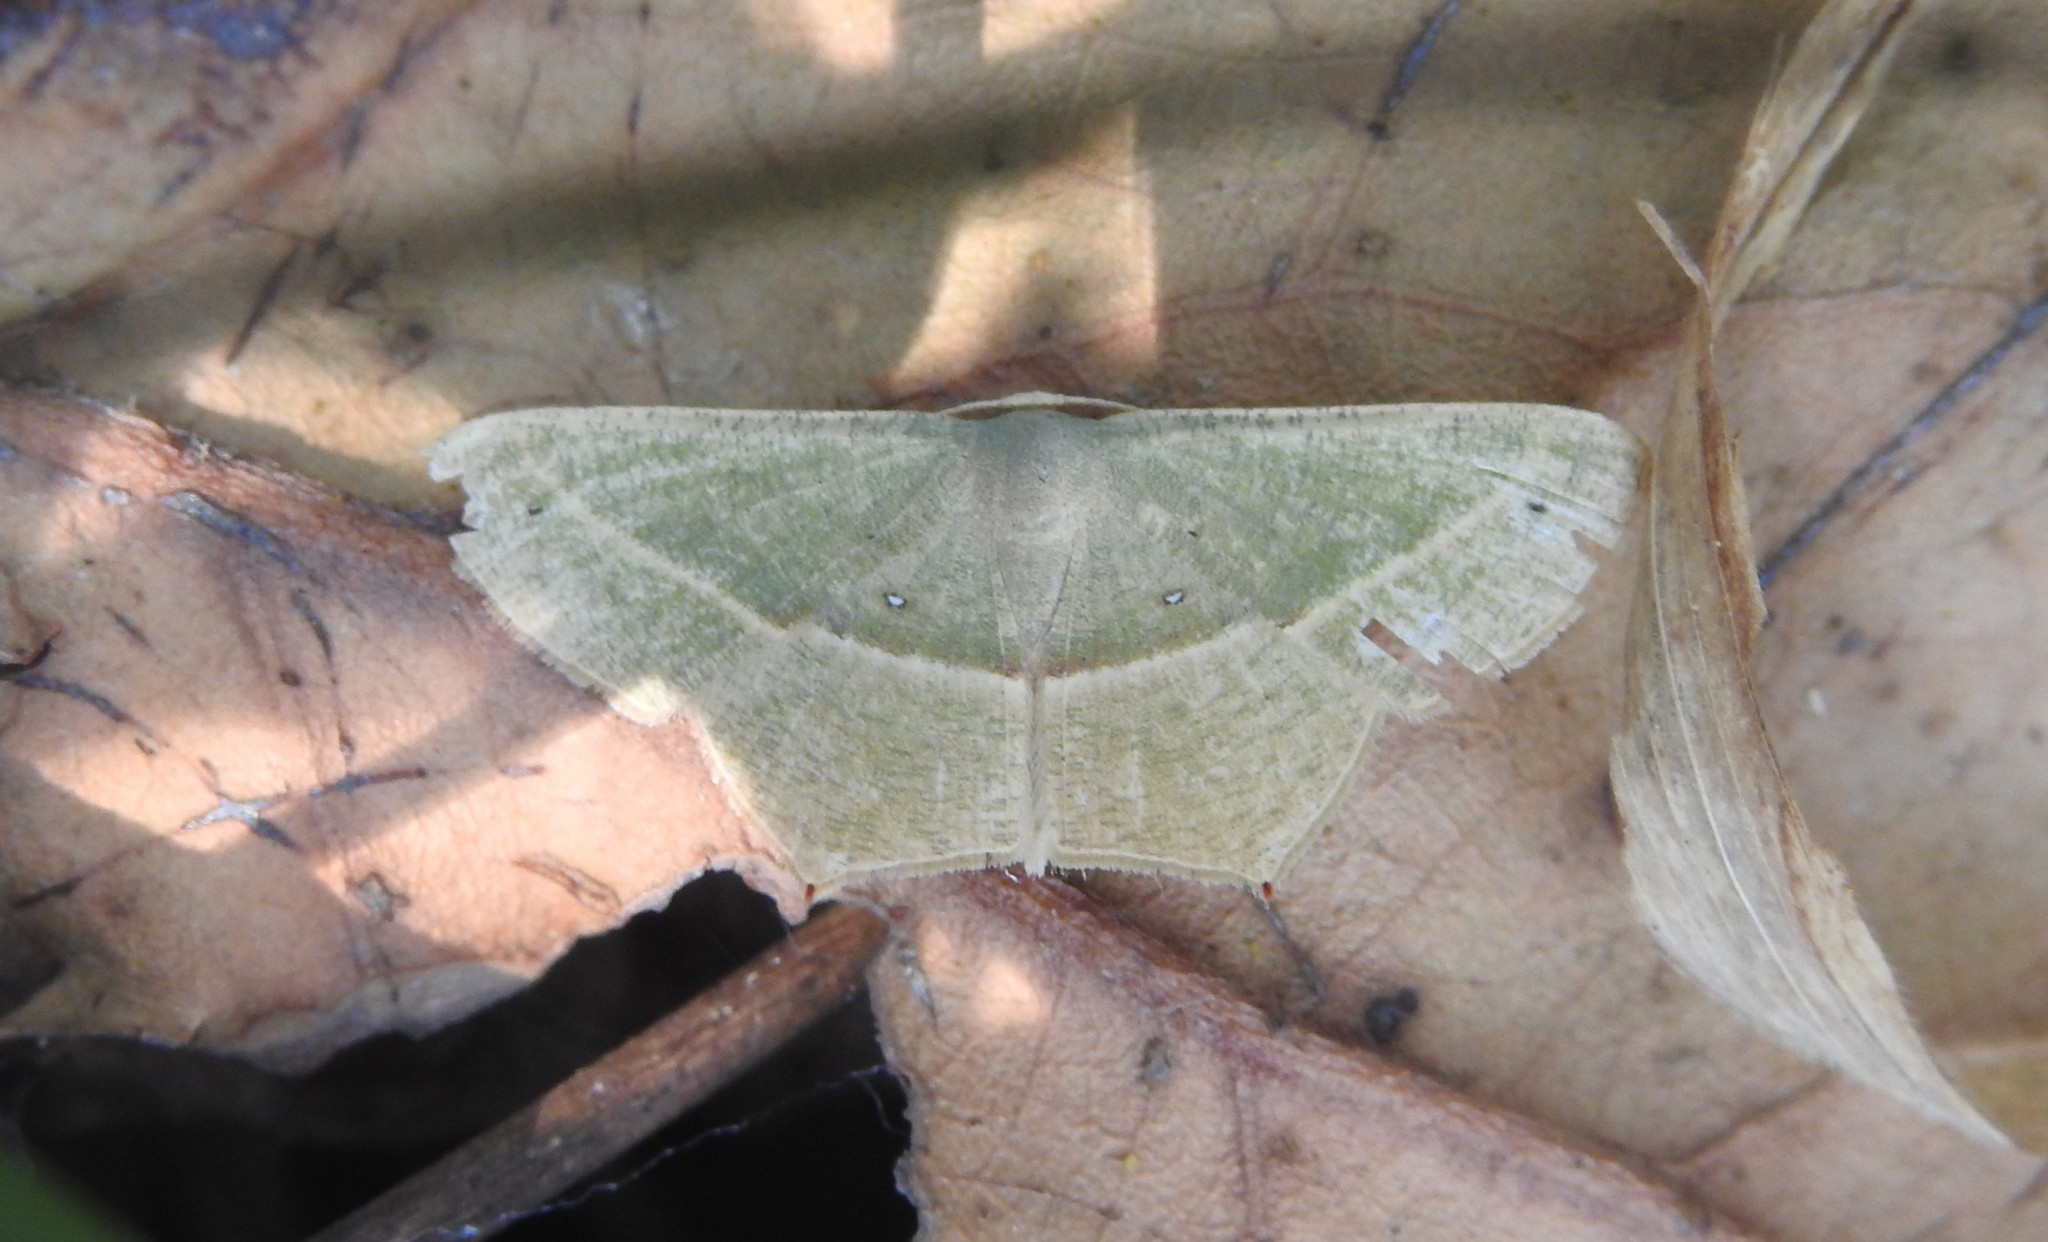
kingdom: Animalia
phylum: Arthropoda
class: Insecta
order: Lepidoptera
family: Geometridae
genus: Traminda
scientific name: Traminda mundissima
